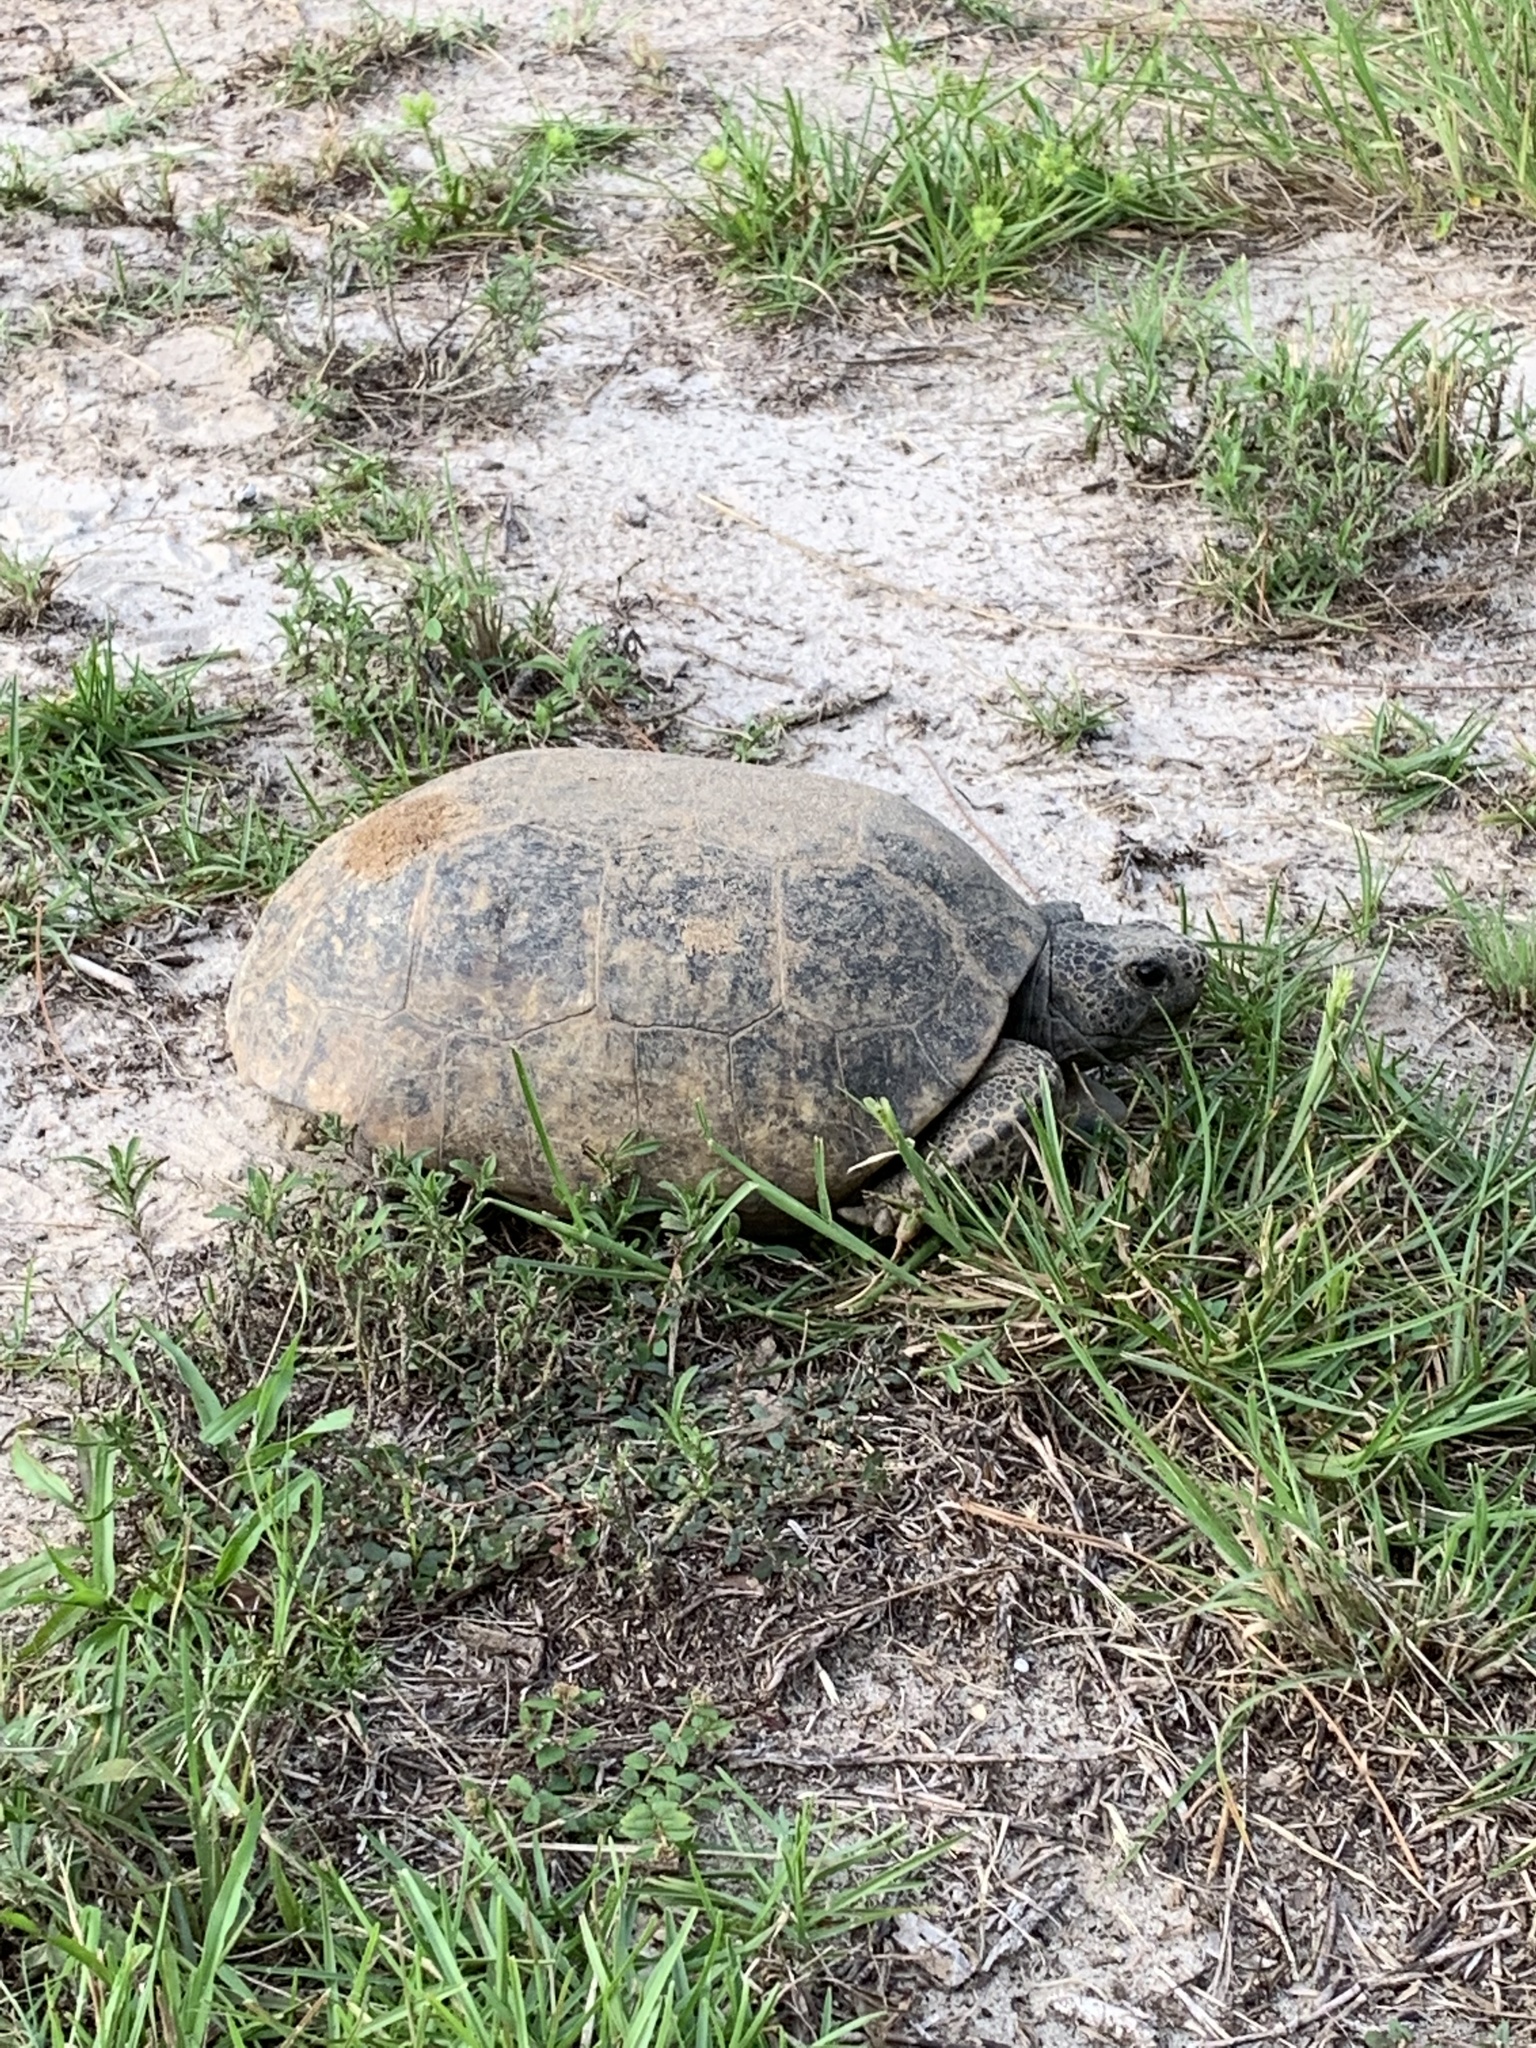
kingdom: Animalia
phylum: Chordata
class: Testudines
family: Testudinidae
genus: Gopherus
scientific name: Gopherus polyphemus
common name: Florida gopher tortoise
